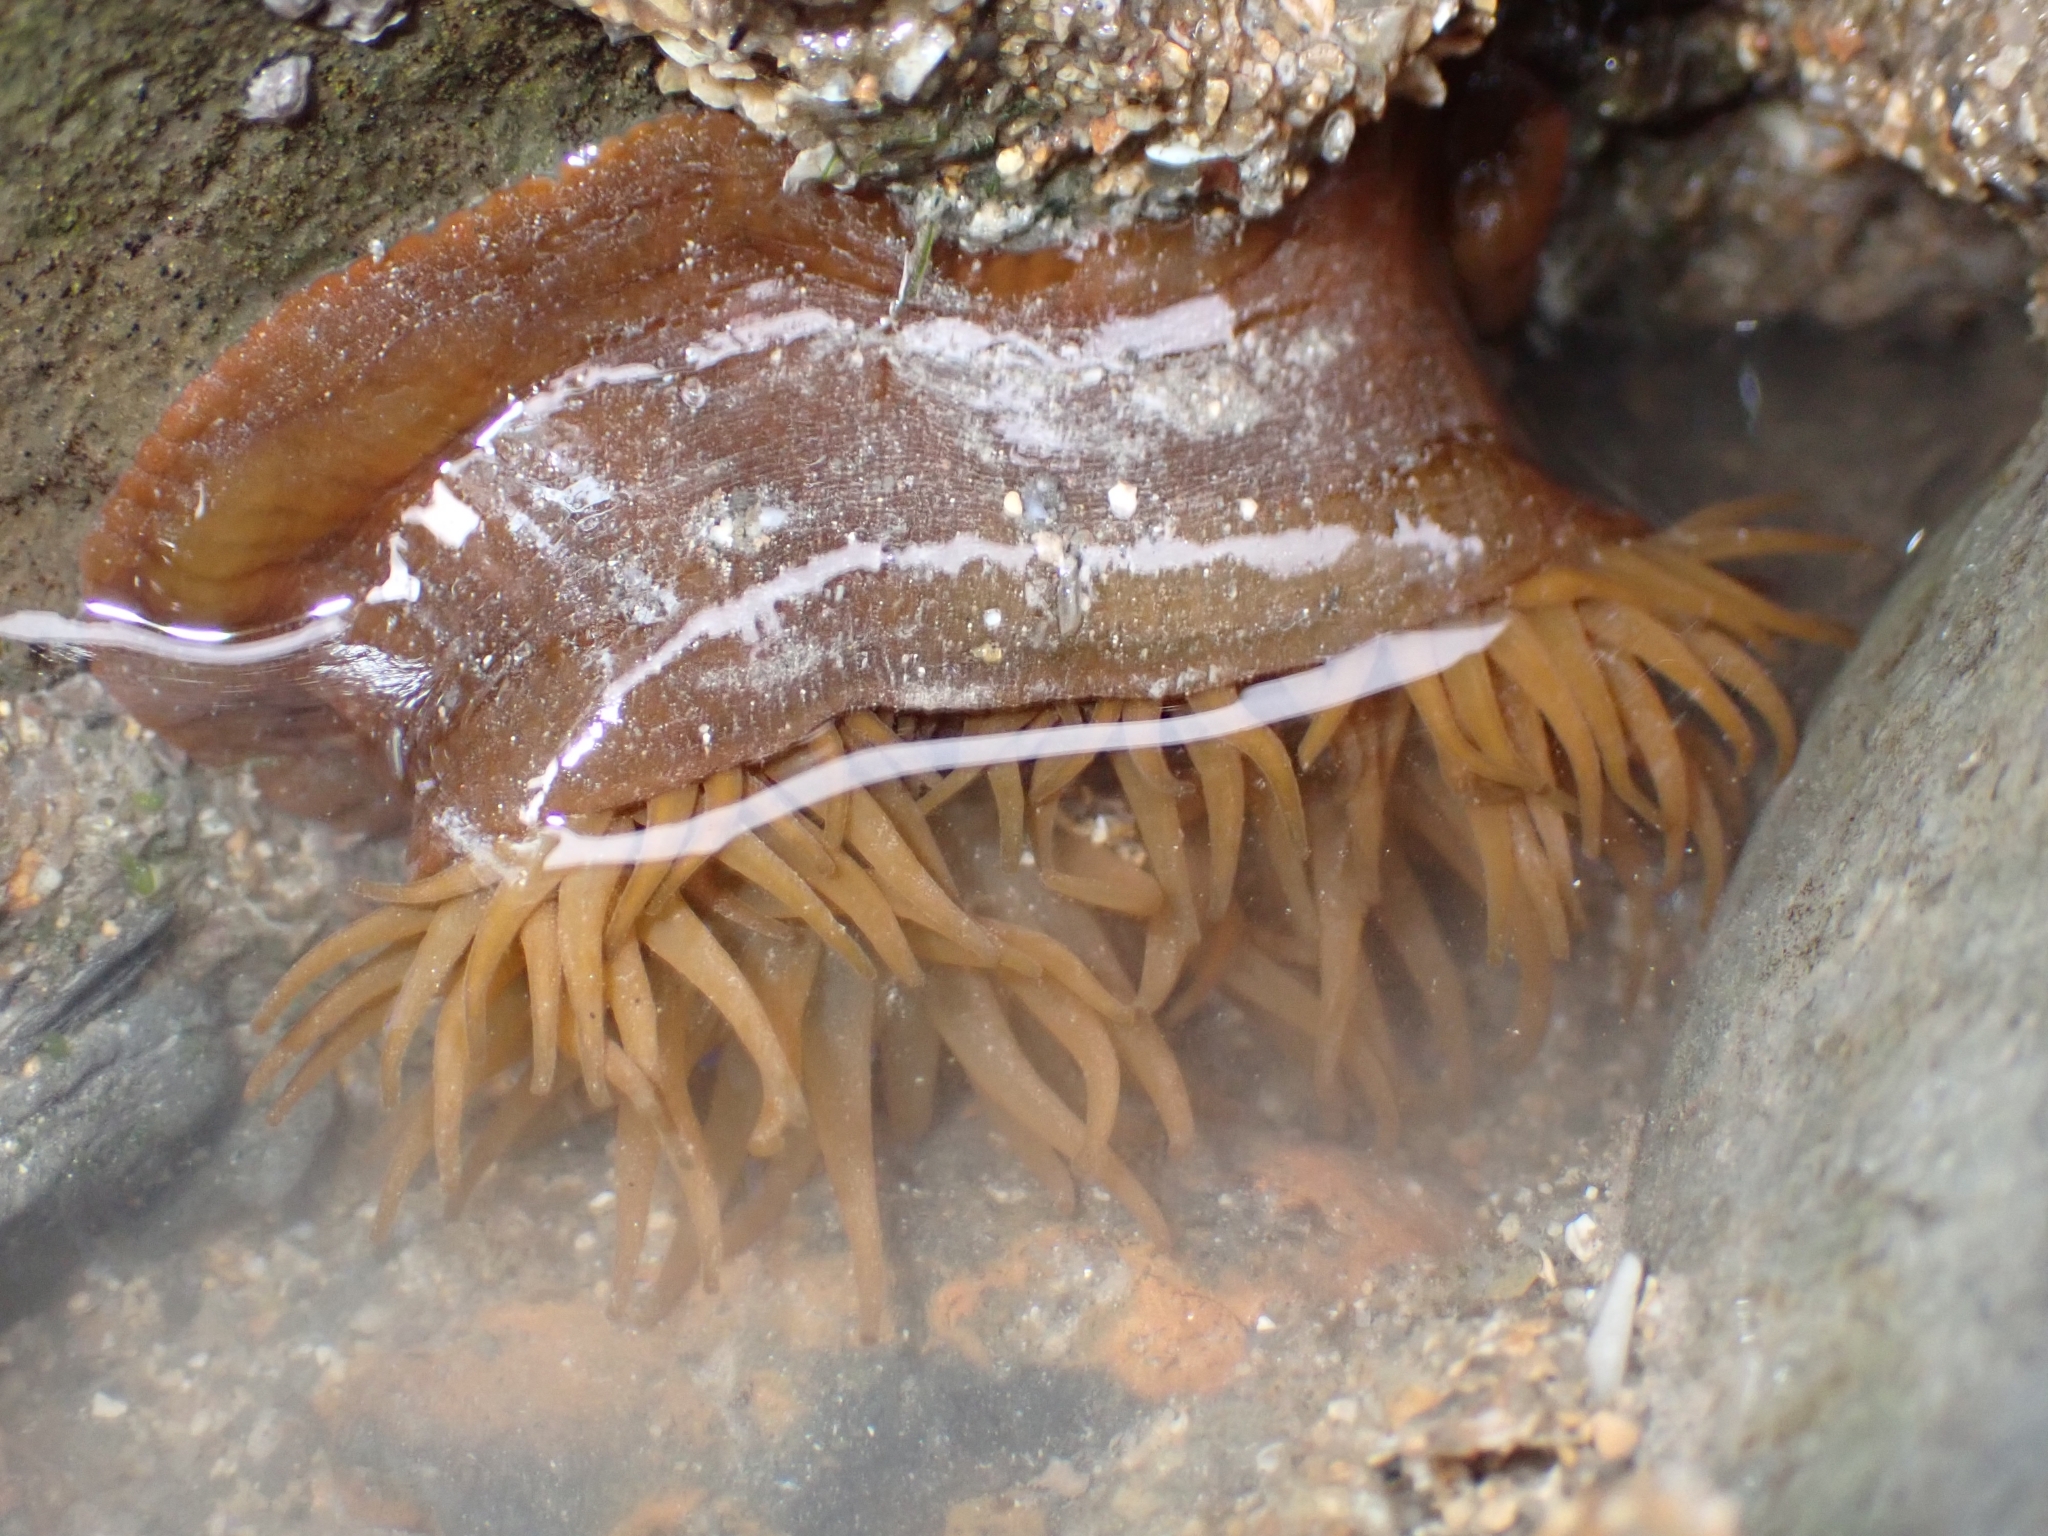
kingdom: Animalia
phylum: Cnidaria
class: Anthozoa
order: Actiniaria
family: Actiniidae
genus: Actinia
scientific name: Actinia equina
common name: Beadlet anemone
